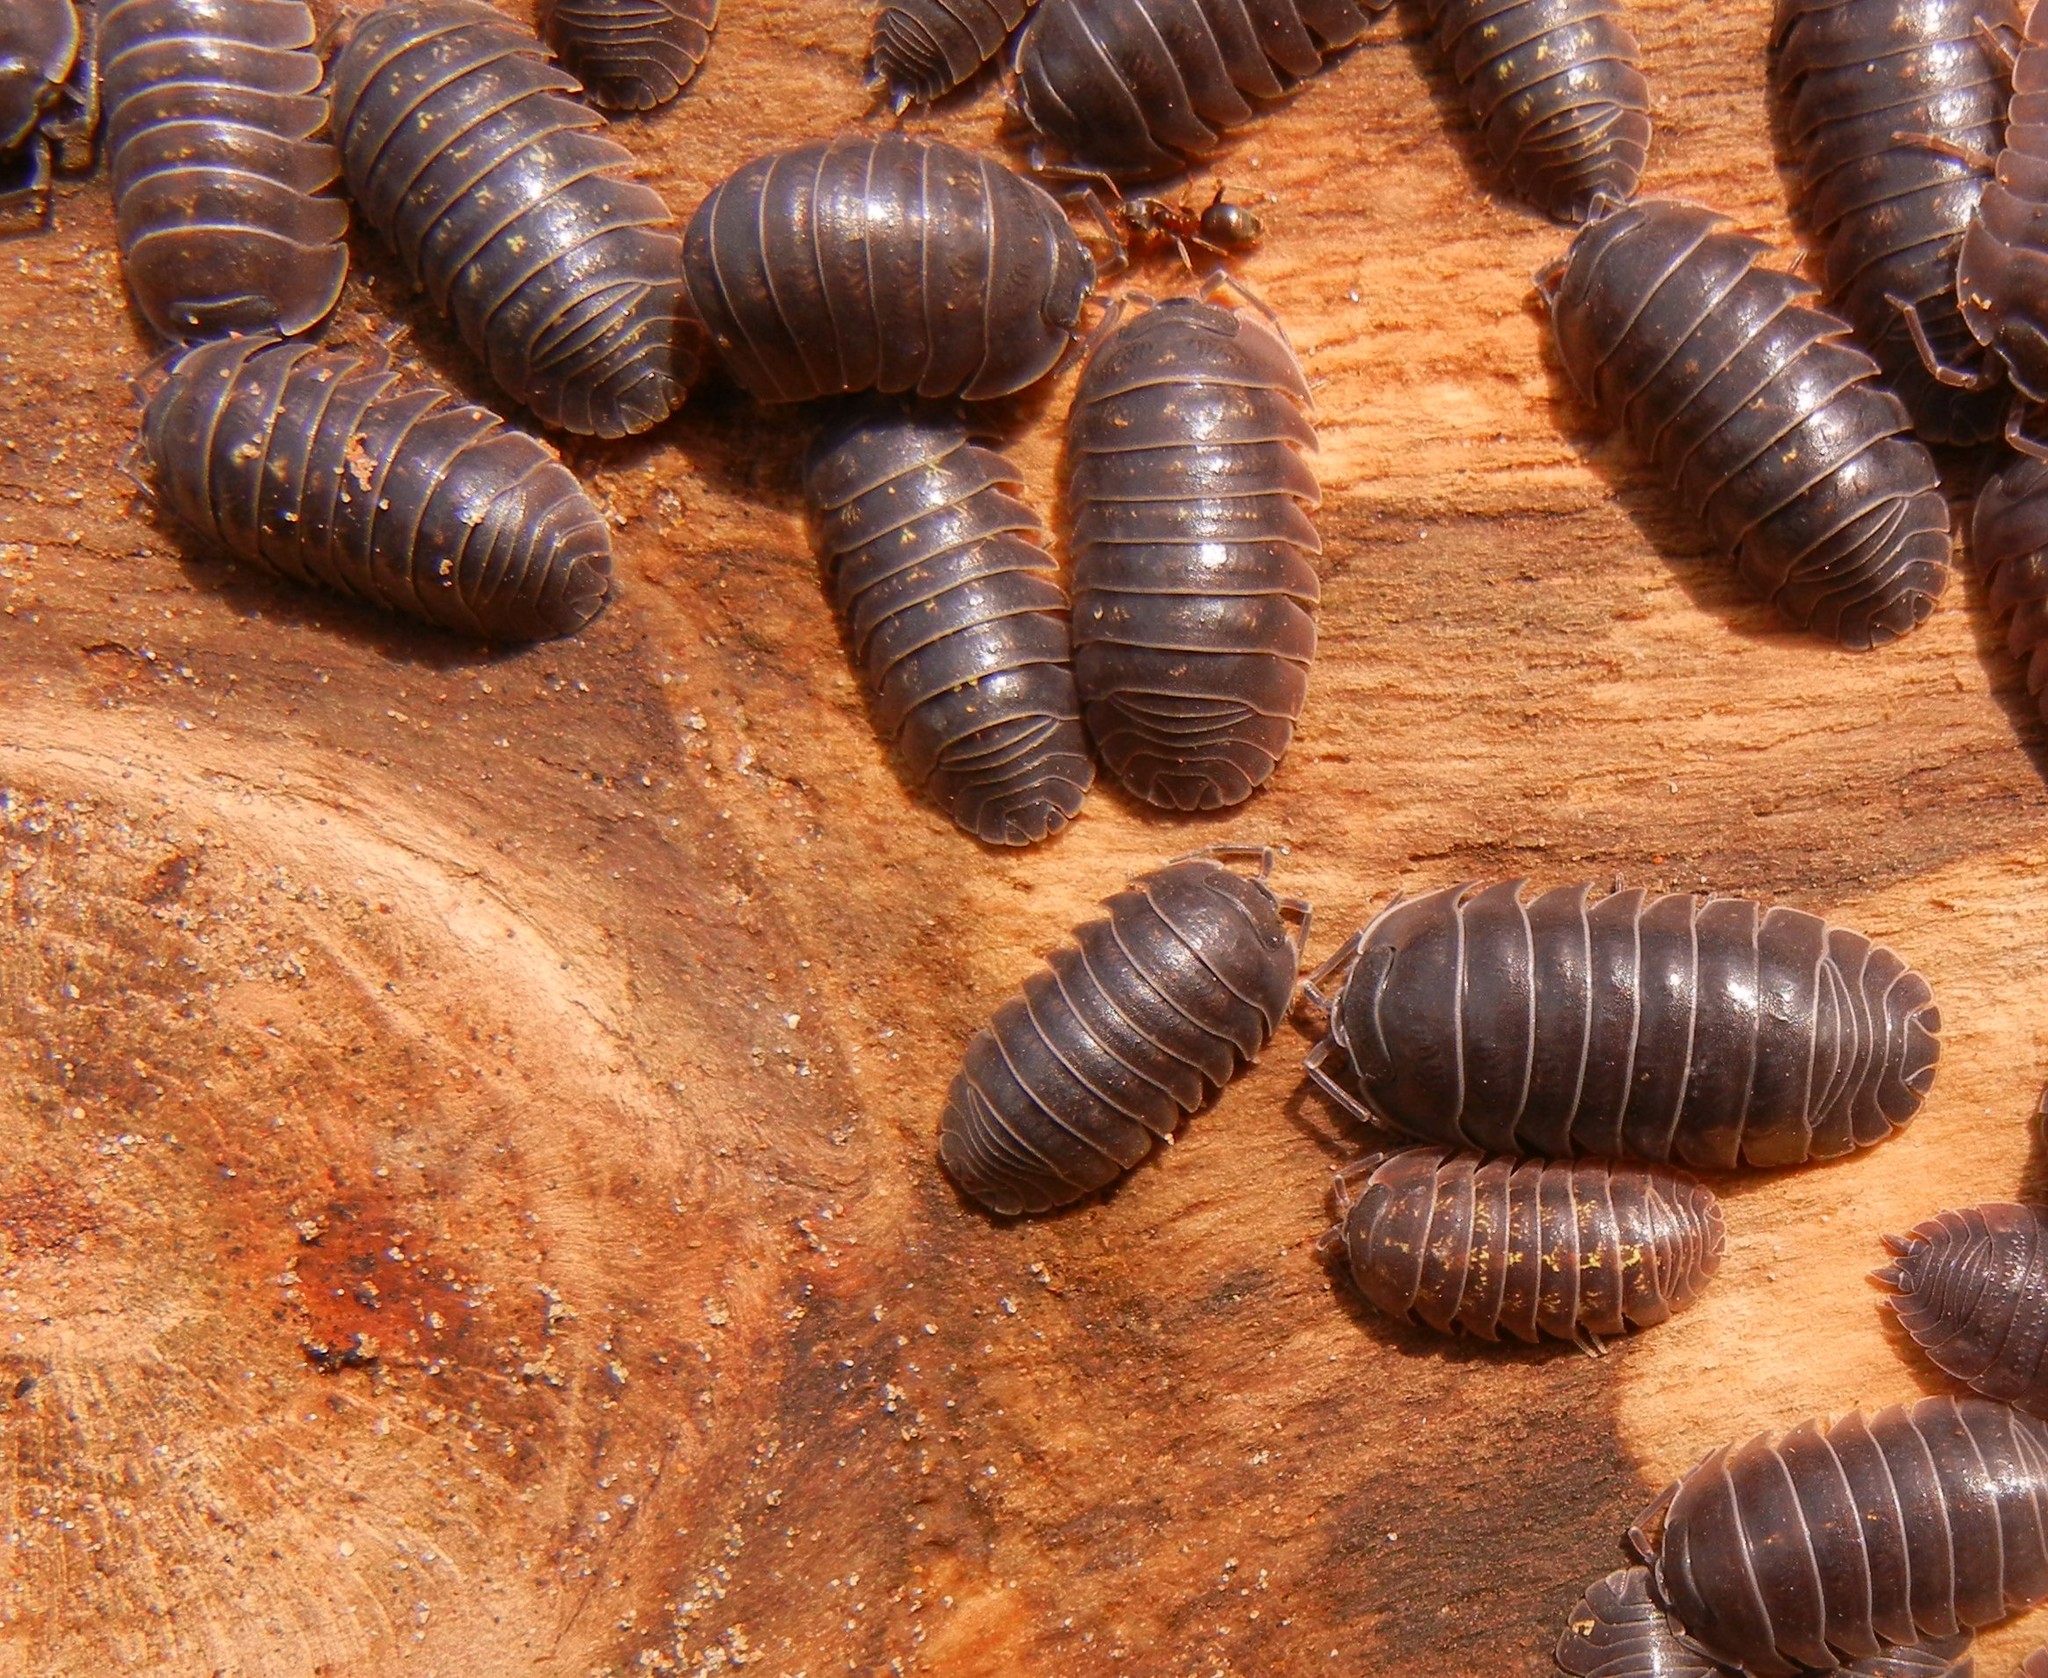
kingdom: Animalia
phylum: Arthropoda
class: Malacostraca
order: Isopoda
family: Armadillidiidae
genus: Armadillidium
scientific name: Armadillidium depressum
